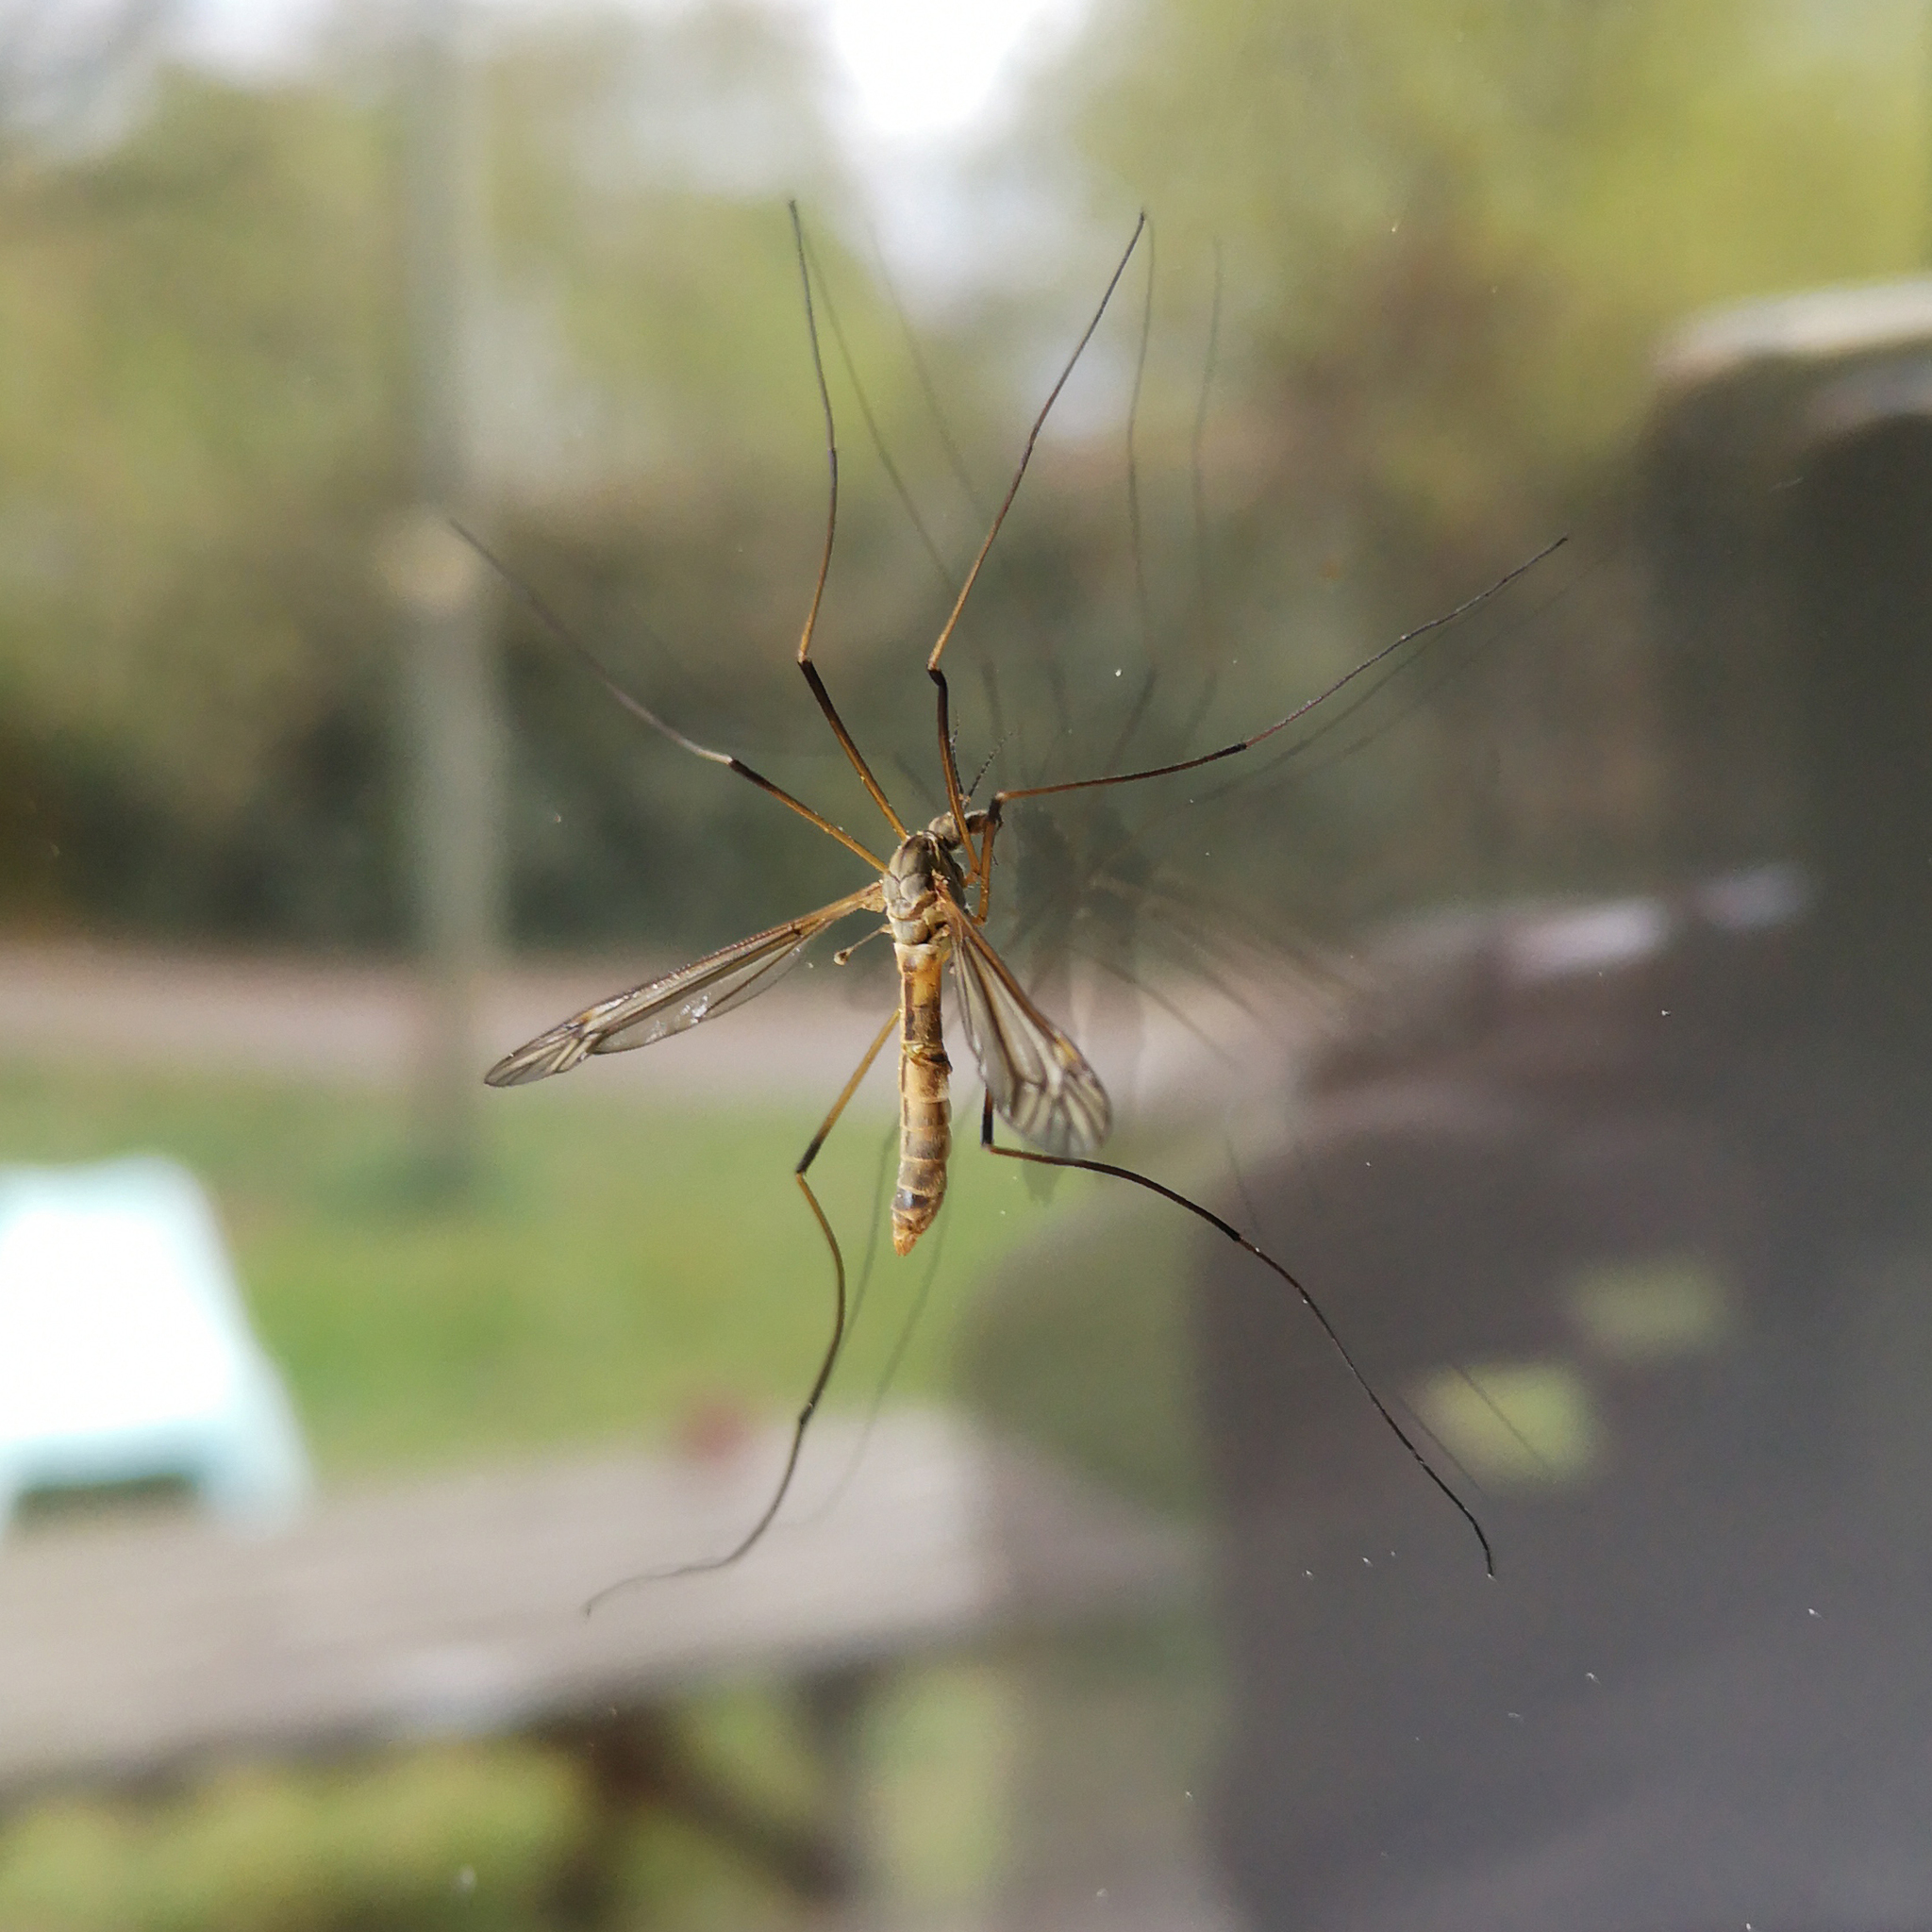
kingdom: Animalia
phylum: Arthropoda
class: Insecta
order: Diptera
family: Tipulidae
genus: Tipula
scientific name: Tipula vernalis
